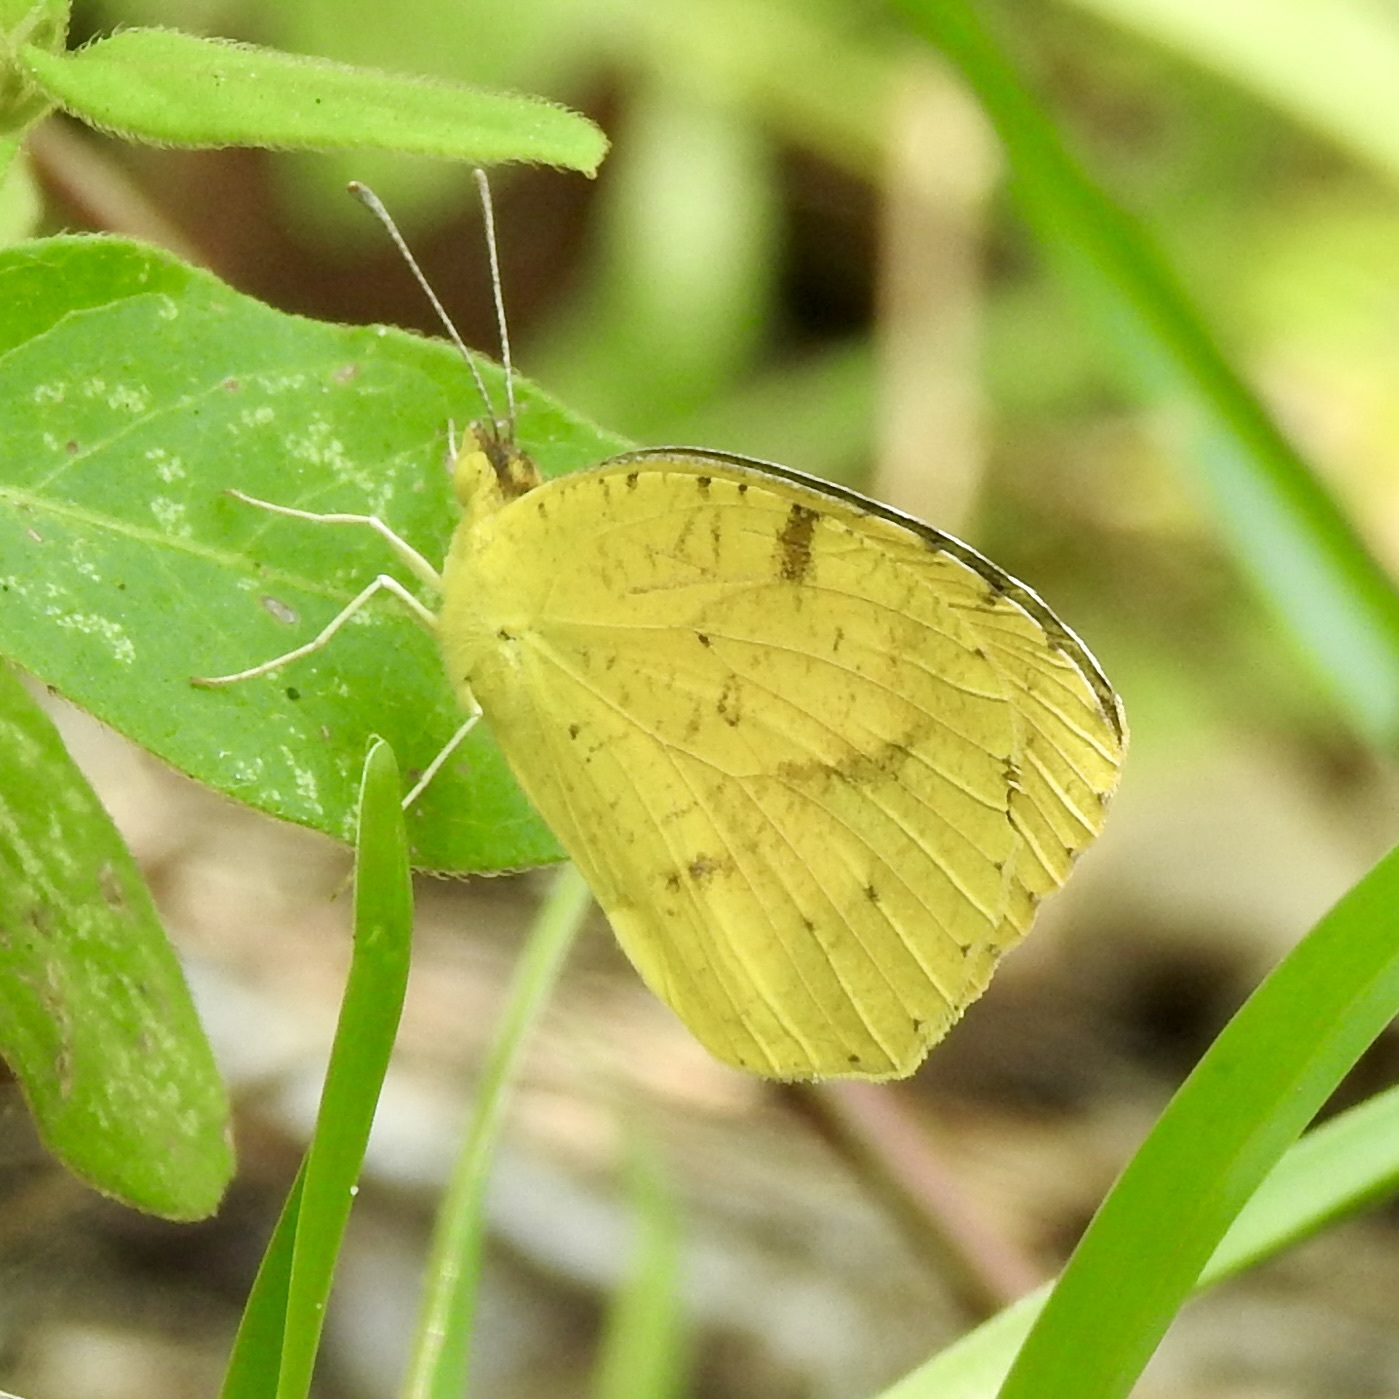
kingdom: Animalia
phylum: Arthropoda
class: Insecta
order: Lepidoptera
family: Pieridae
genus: Abaeis
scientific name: Abaeis nicippe
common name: Sleepy orange
